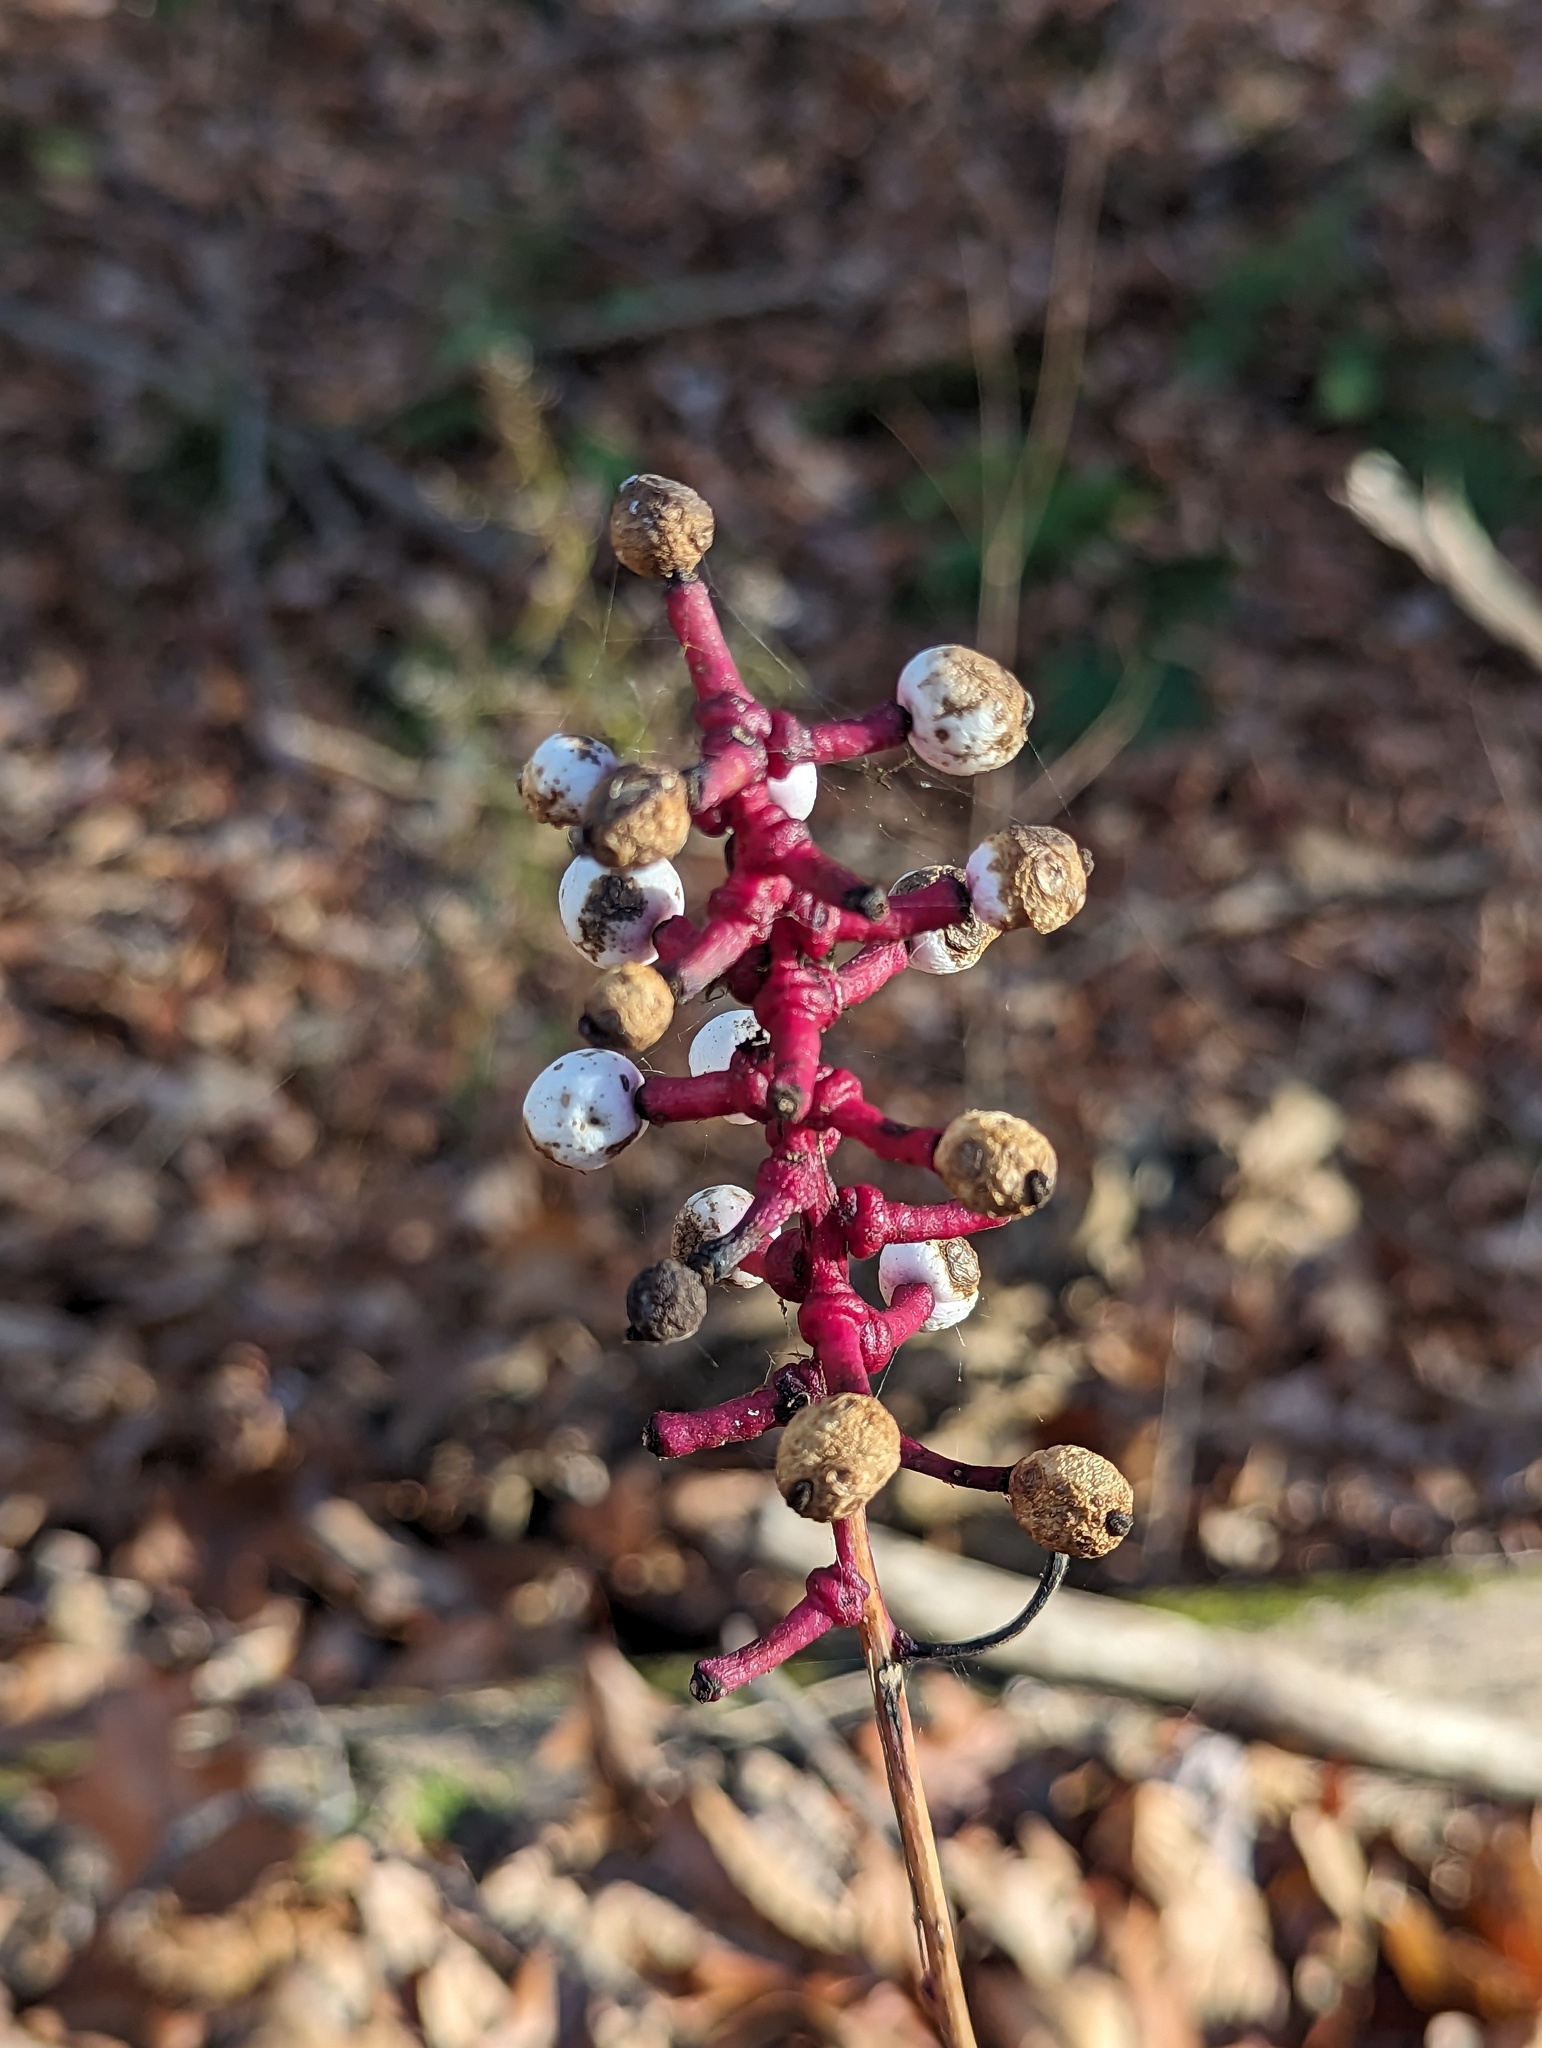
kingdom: Plantae
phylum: Tracheophyta
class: Magnoliopsida
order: Ranunculales
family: Ranunculaceae
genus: Actaea
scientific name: Actaea pachypoda
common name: Doll's-eyes
